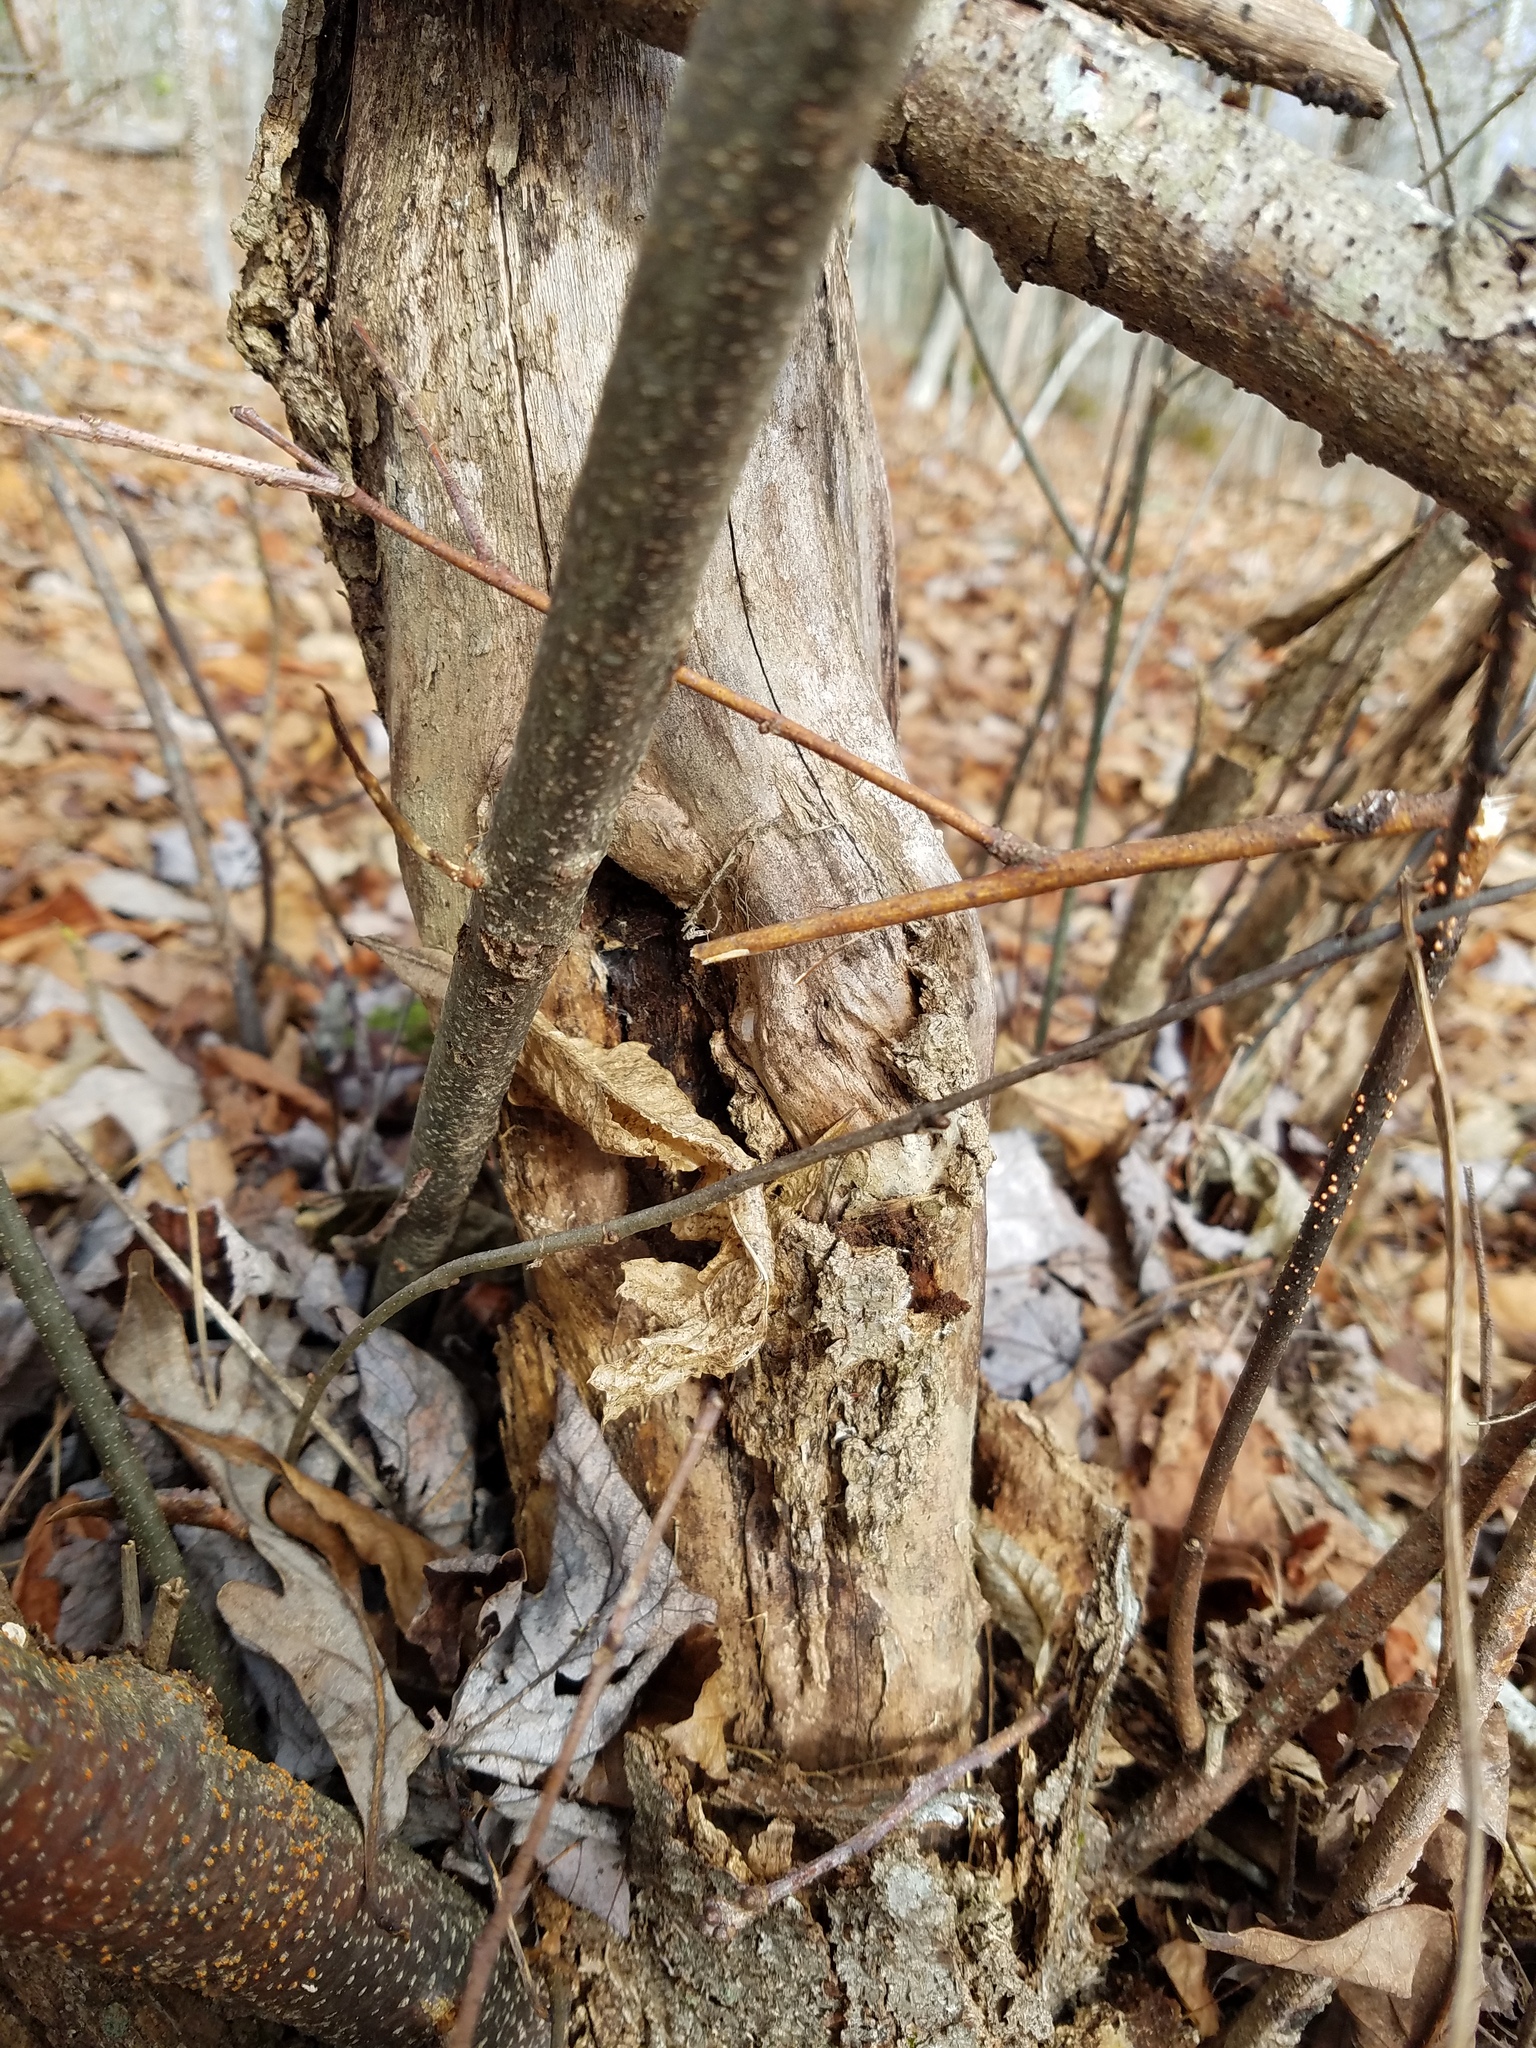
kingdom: Fungi
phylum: Ascomycota
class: Sordariomycetes
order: Diaporthales
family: Cryphonectriaceae
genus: Cryphonectria
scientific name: Cryphonectria parasitica
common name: Chestnut blight
